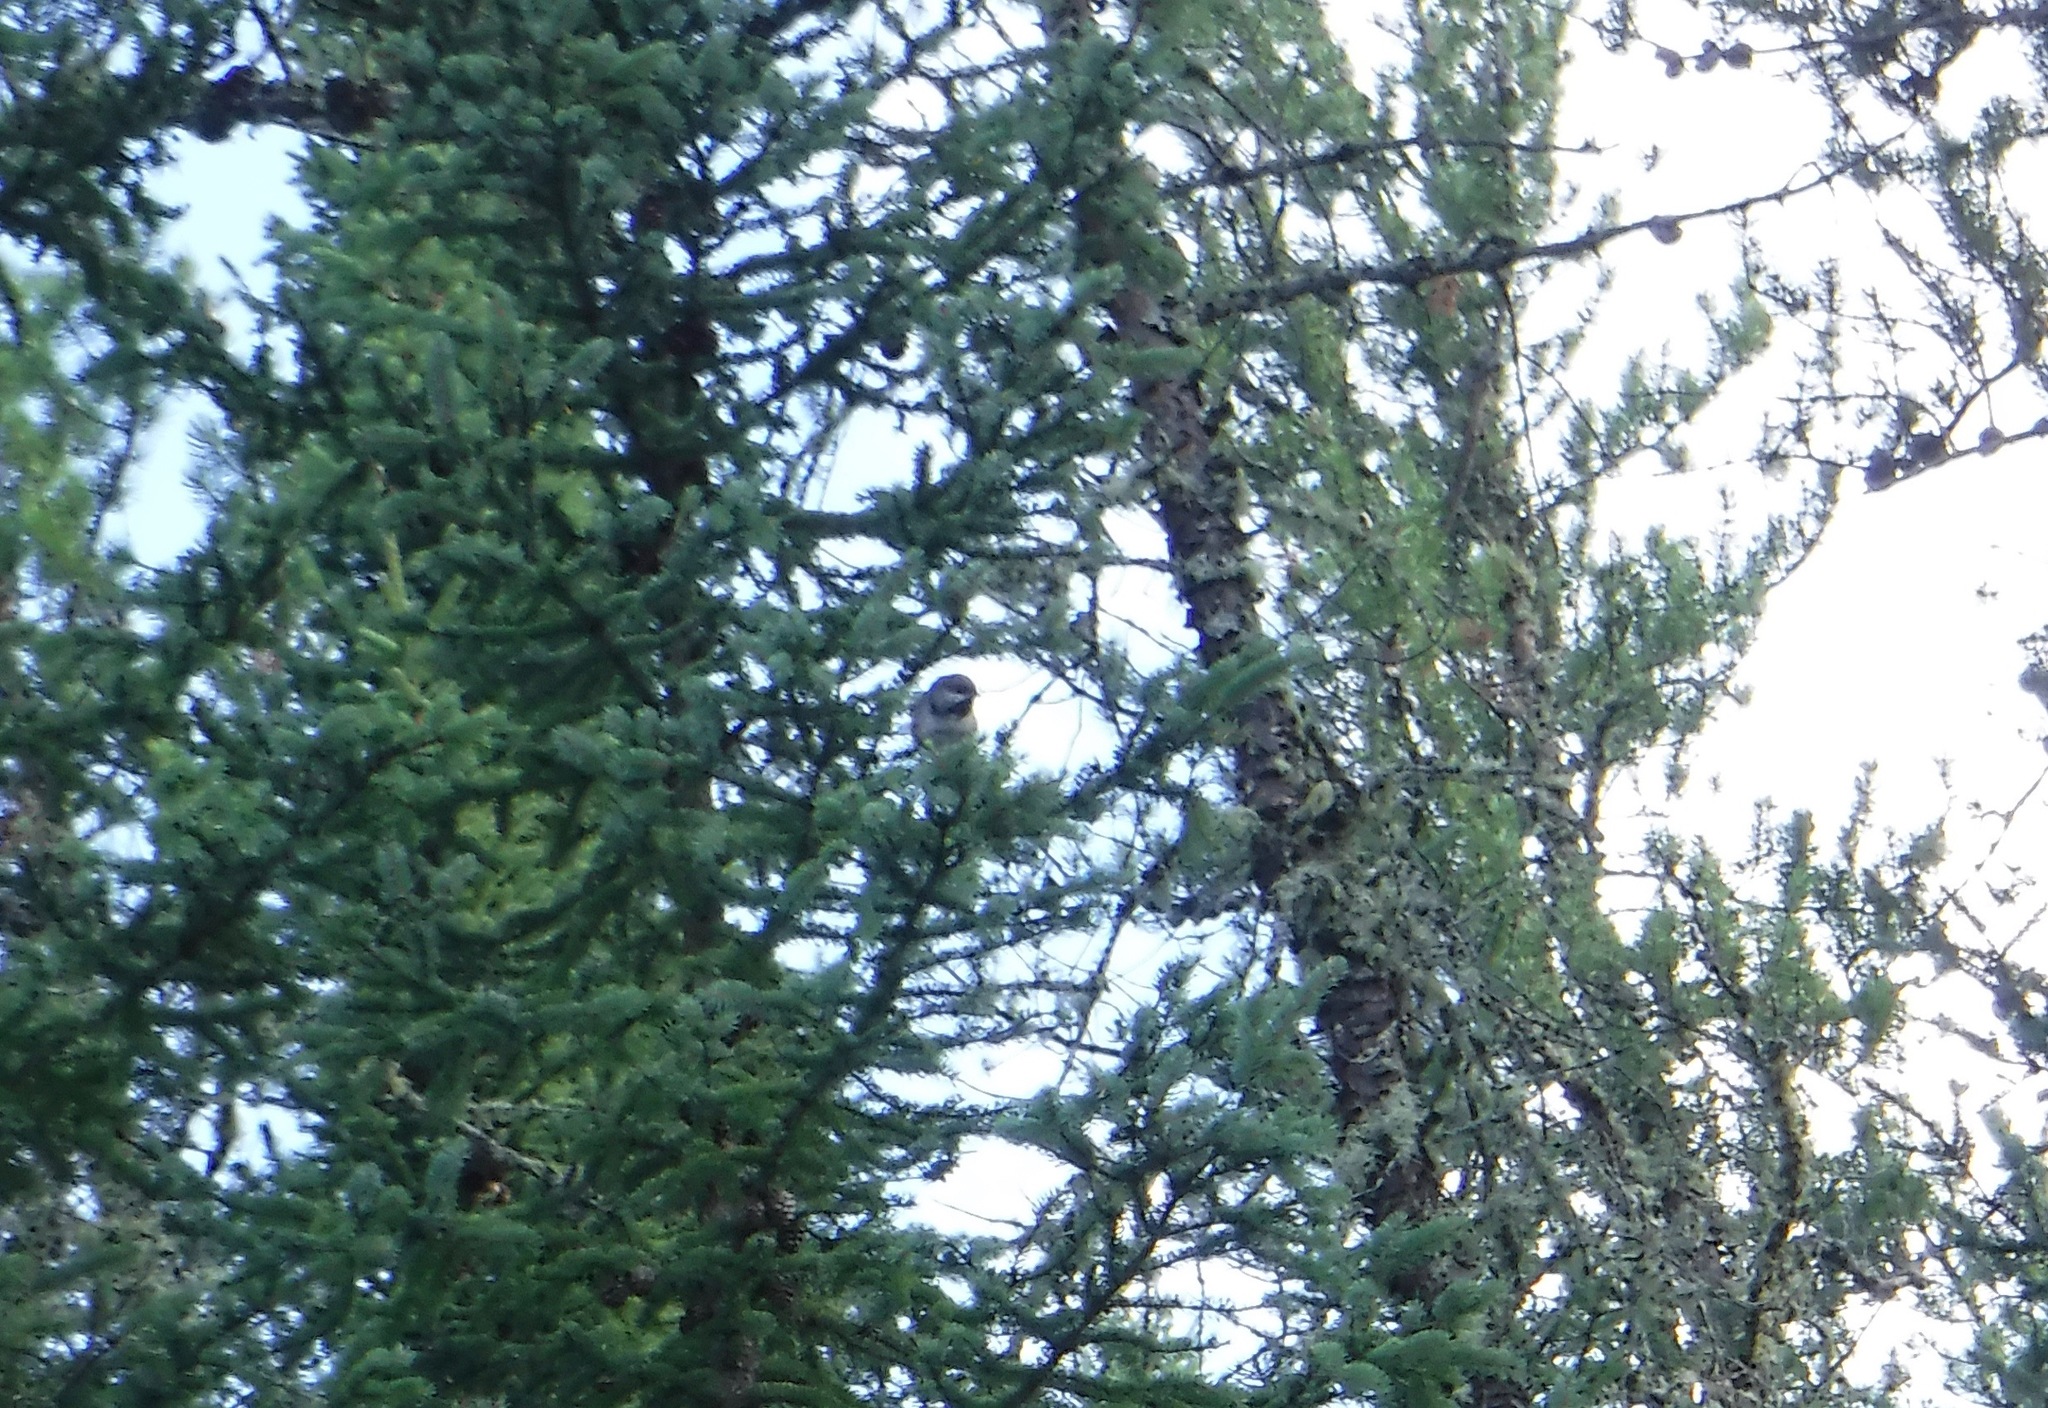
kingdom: Animalia
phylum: Chordata
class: Aves
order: Passeriformes
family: Paridae
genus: Poecile
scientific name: Poecile hudsonicus
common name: Boreal chickadee
